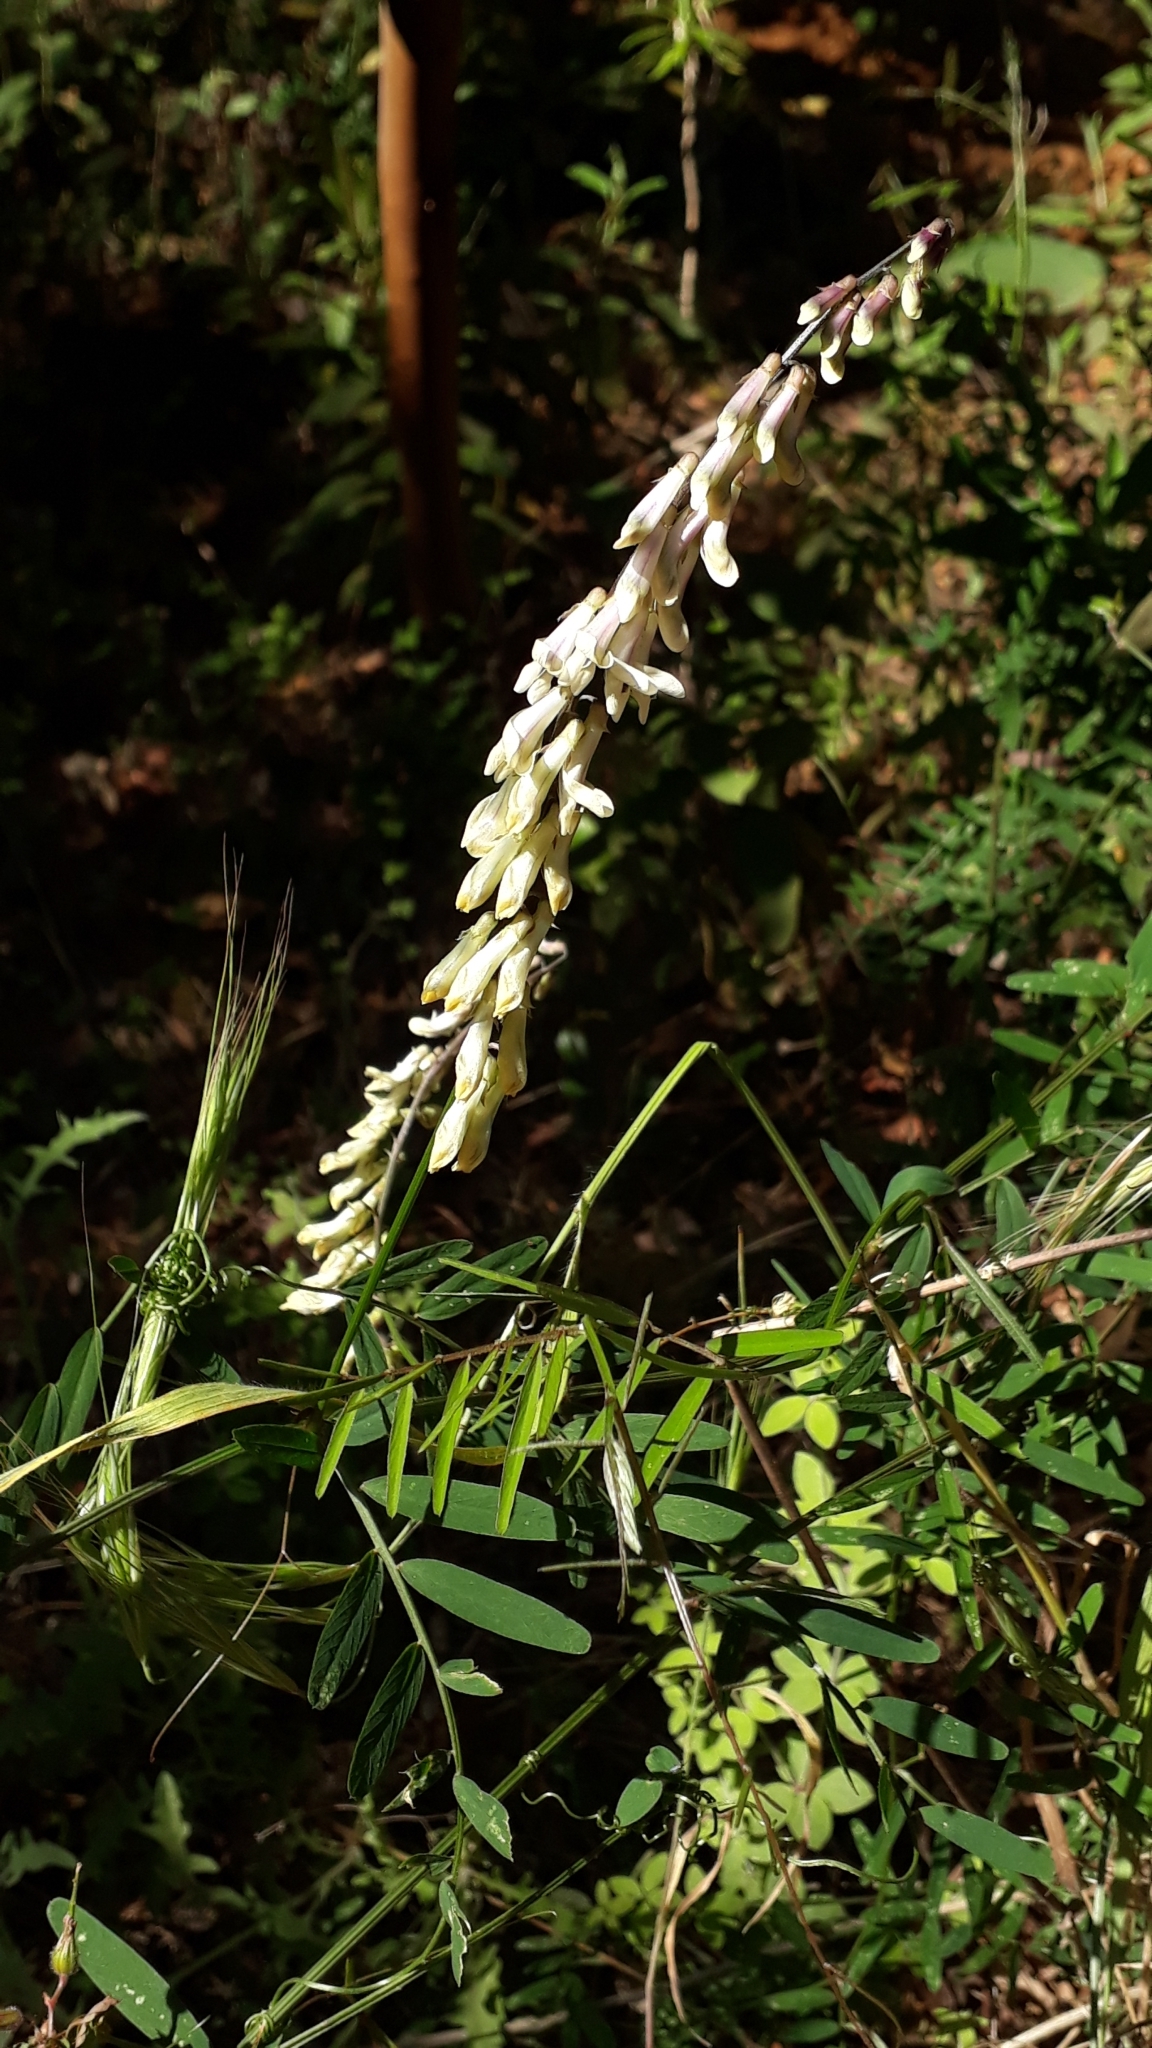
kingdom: Plantae
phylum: Tracheophyta
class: Magnoliopsida
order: Fabales
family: Fabaceae
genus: Vicia
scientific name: Vicia scandens
